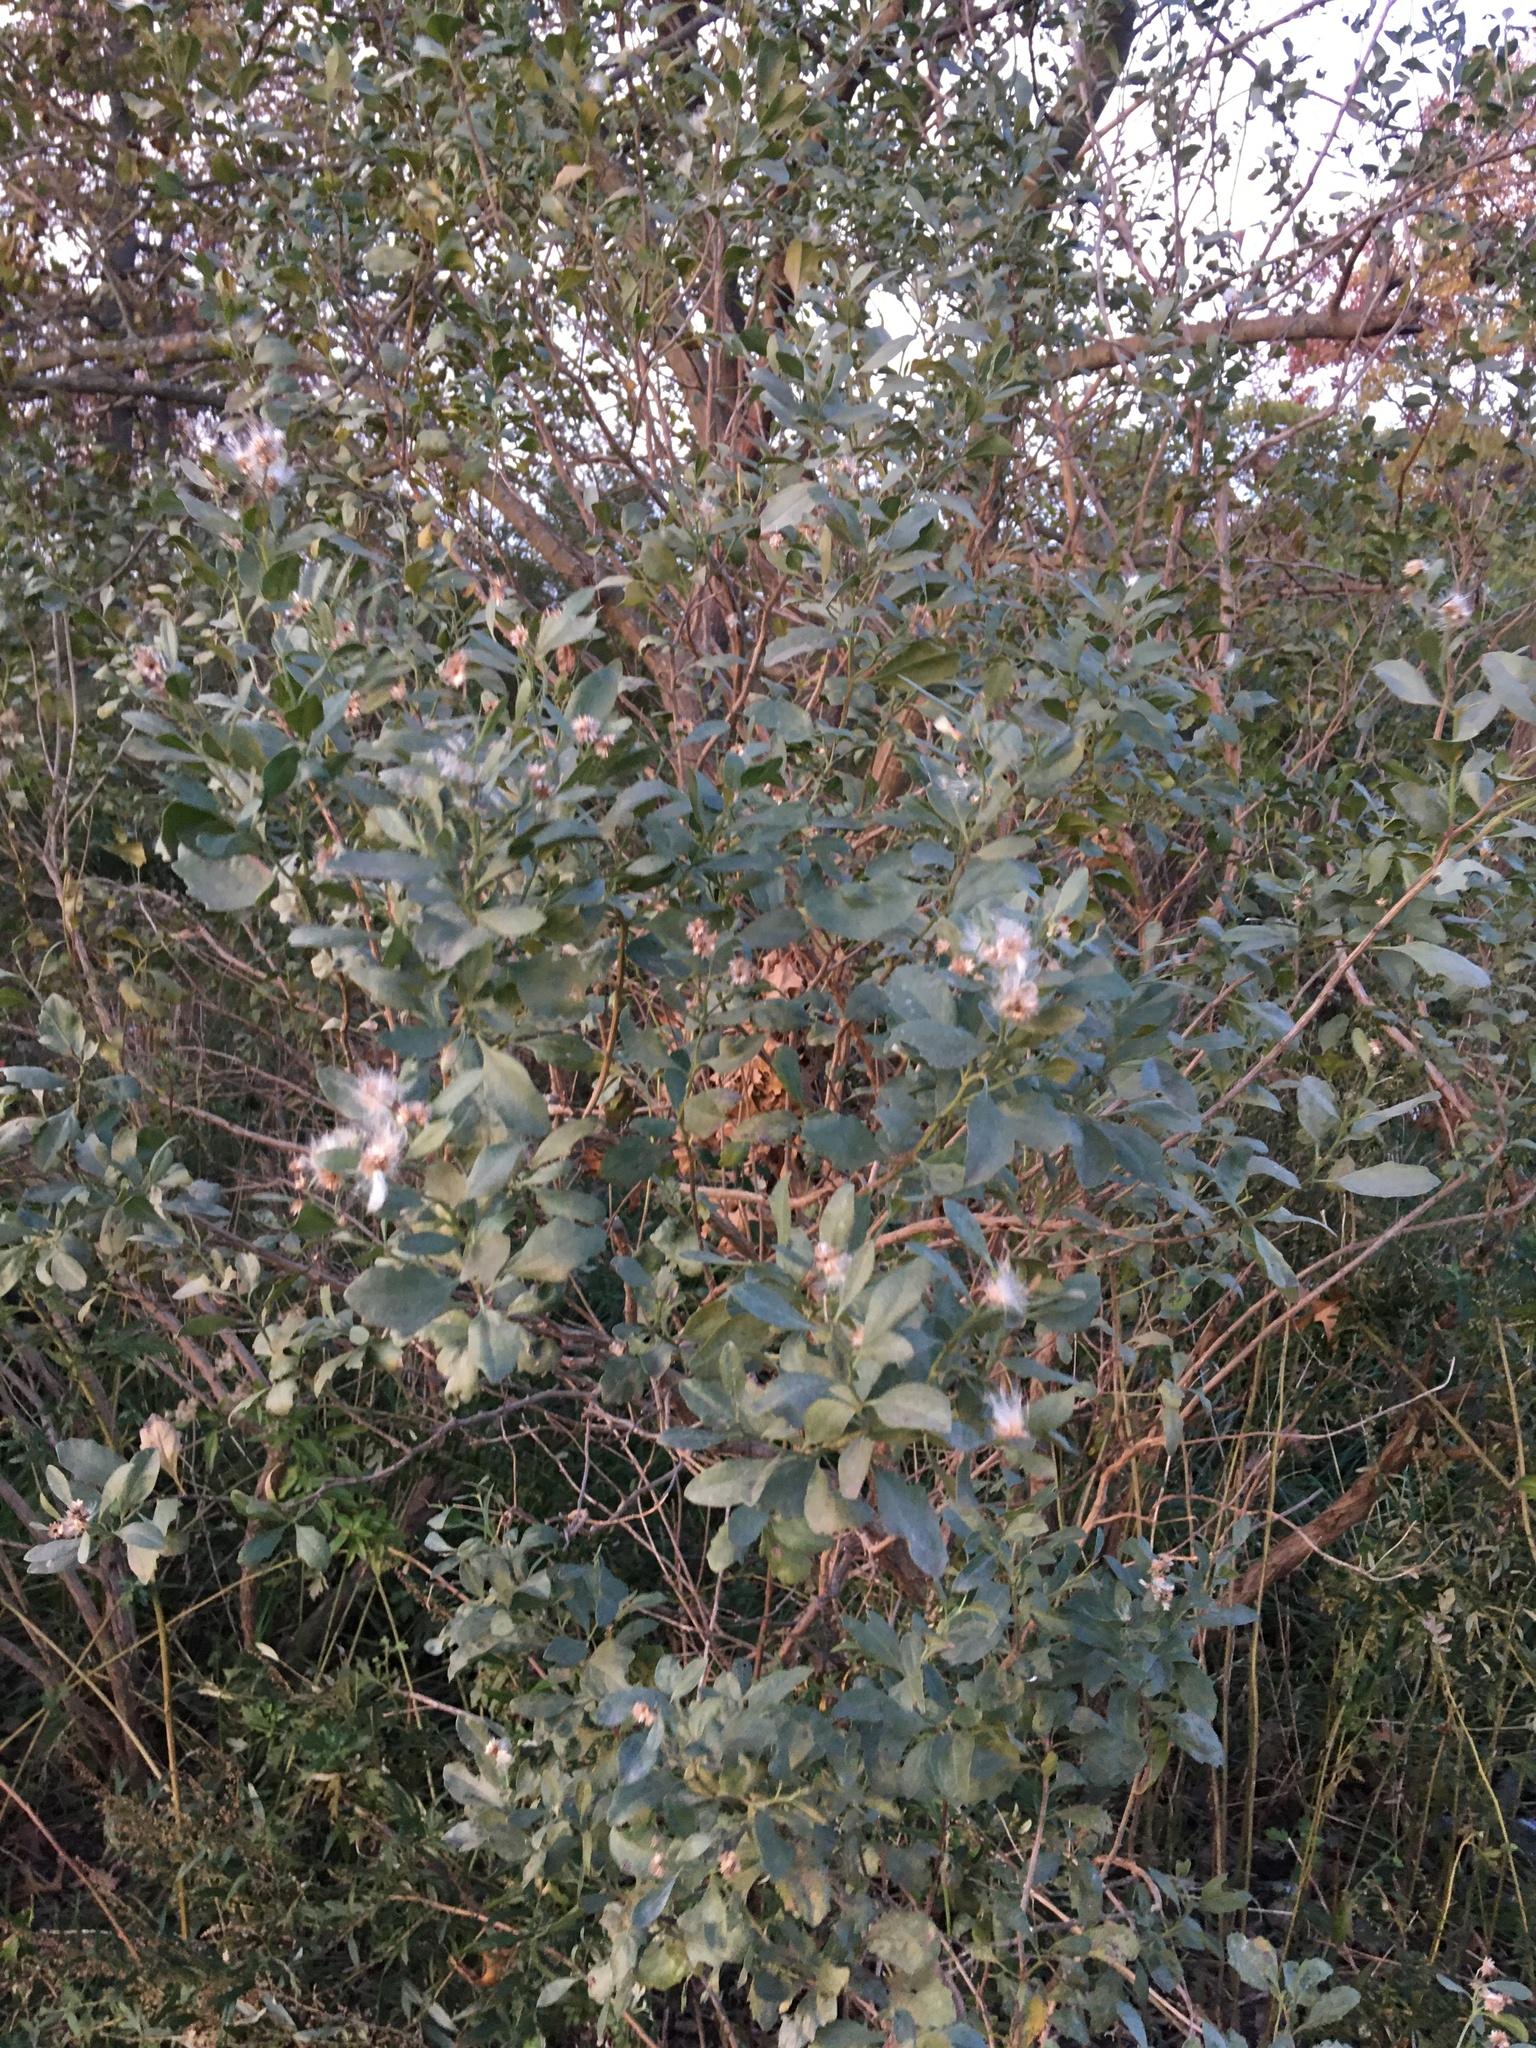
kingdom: Plantae
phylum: Tracheophyta
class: Magnoliopsida
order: Asterales
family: Asteraceae
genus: Baccharis
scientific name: Baccharis halimifolia
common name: Eastern baccharis
